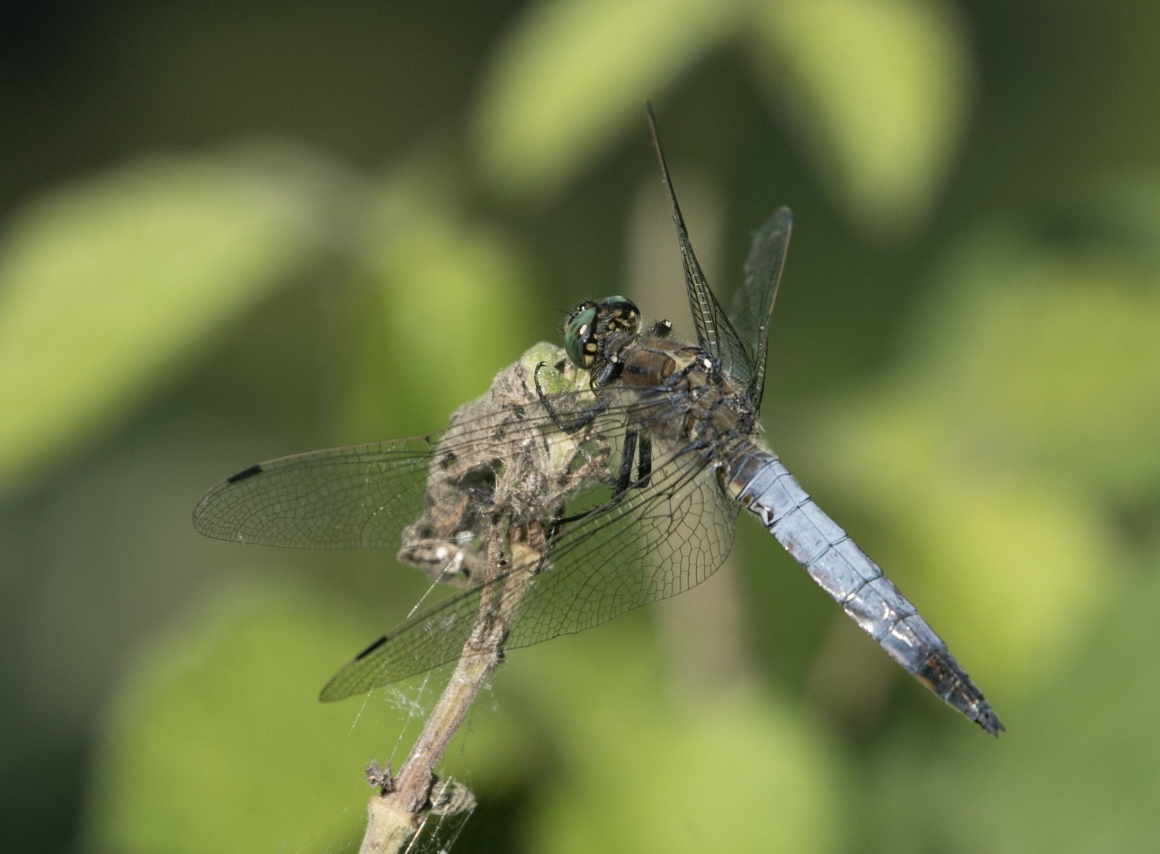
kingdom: Animalia
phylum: Arthropoda
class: Insecta
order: Odonata
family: Libellulidae
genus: Orthetrum
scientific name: Orthetrum cancellatum
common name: Black-tailed skimmer
